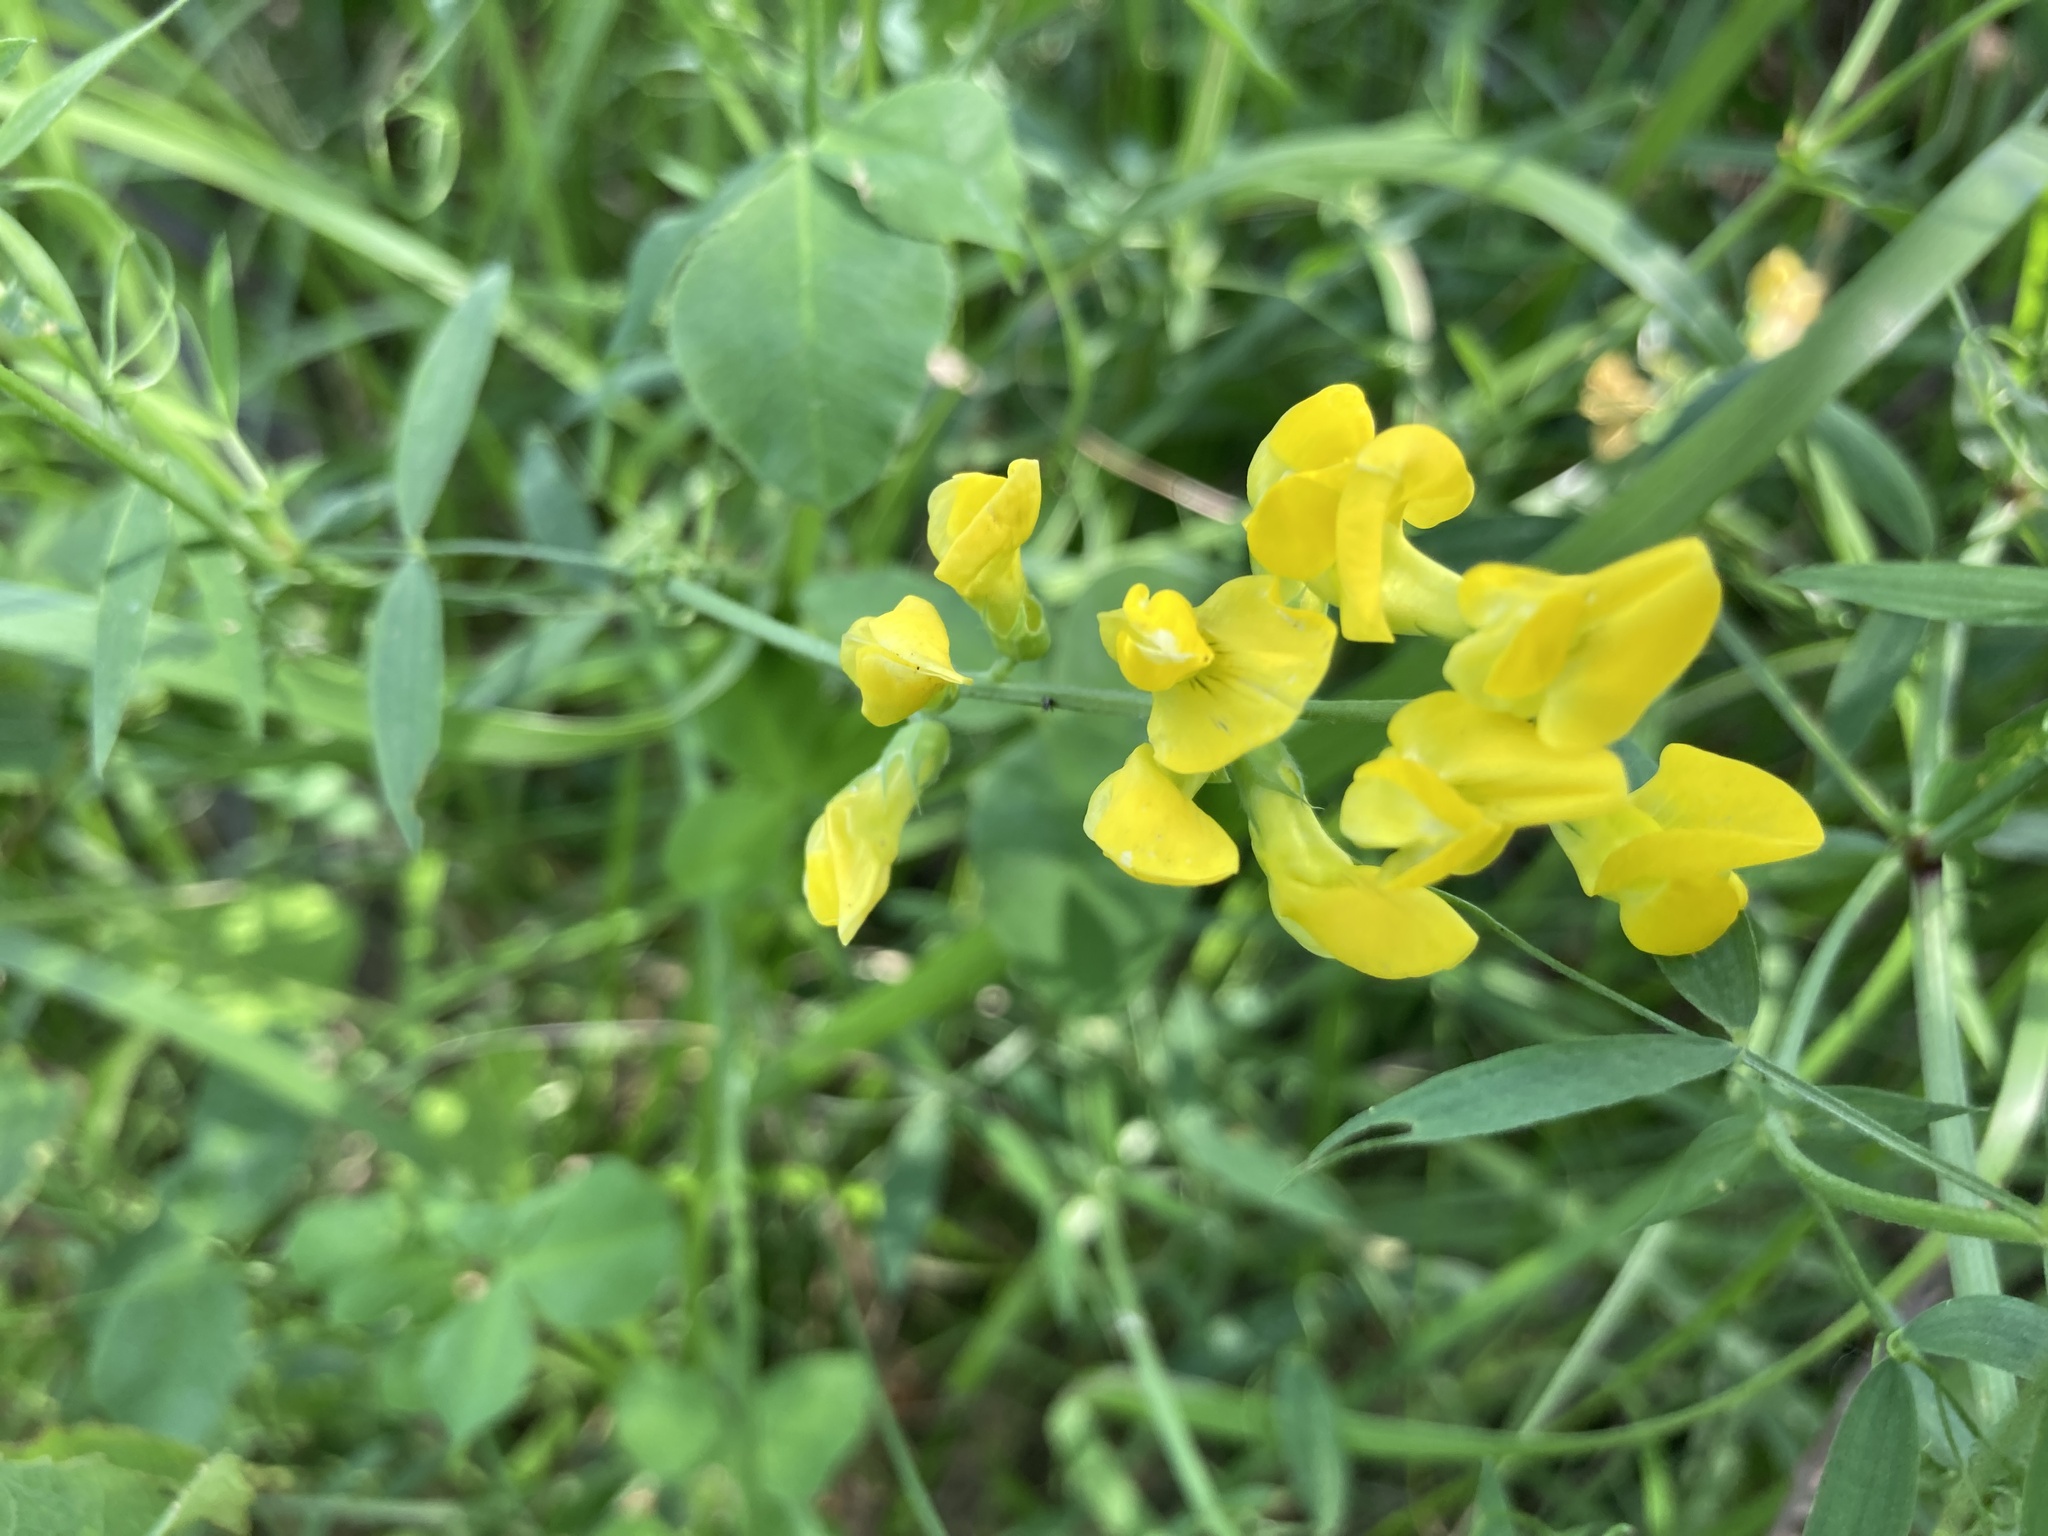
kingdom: Plantae
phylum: Tracheophyta
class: Magnoliopsida
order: Fabales
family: Fabaceae
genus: Lathyrus
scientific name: Lathyrus pratensis
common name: Meadow vetchling
